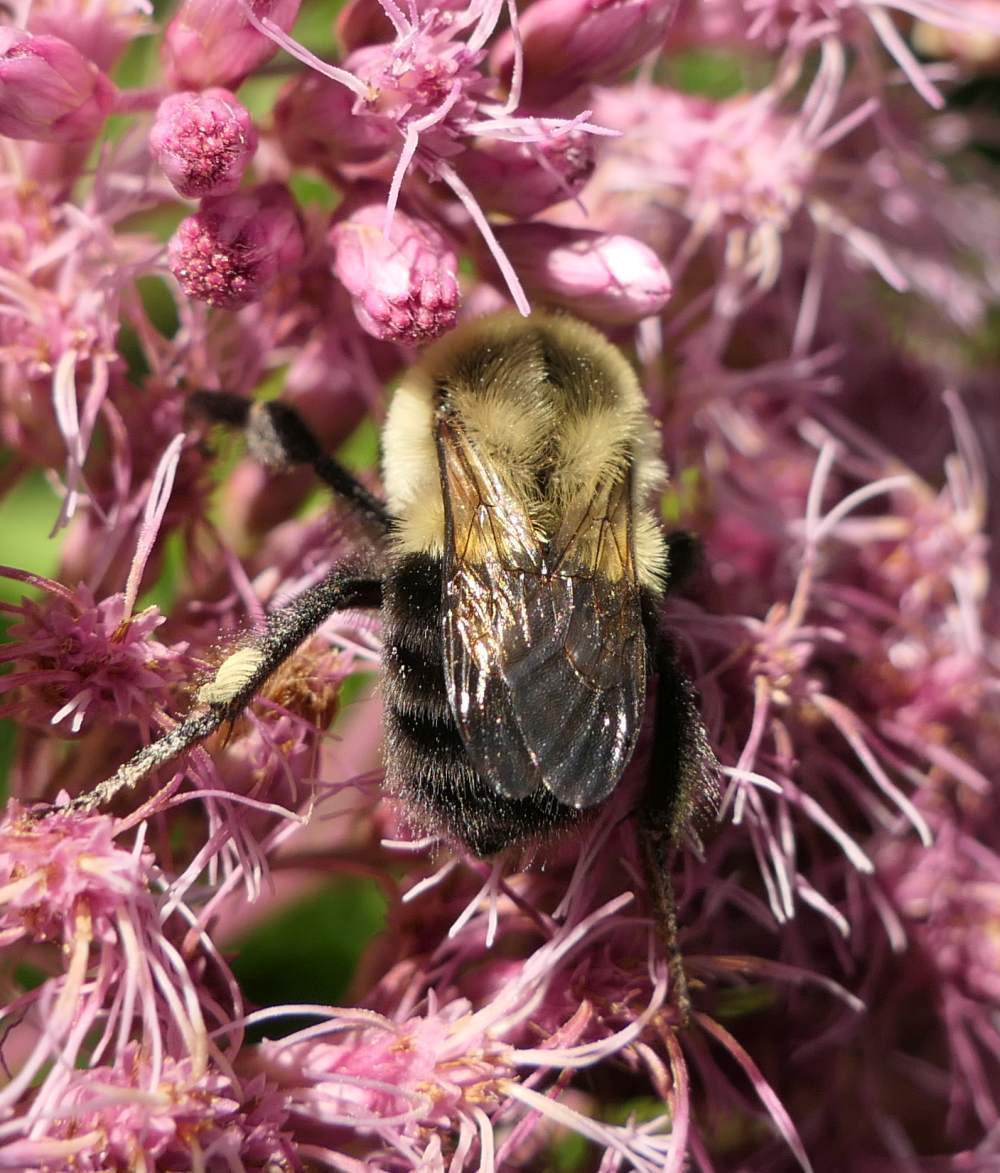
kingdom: Animalia
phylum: Arthropoda
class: Insecta
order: Hymenoptera
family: Apidae
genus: Bombus
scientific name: Bombus impatiens
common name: Common eastern bumble bee
